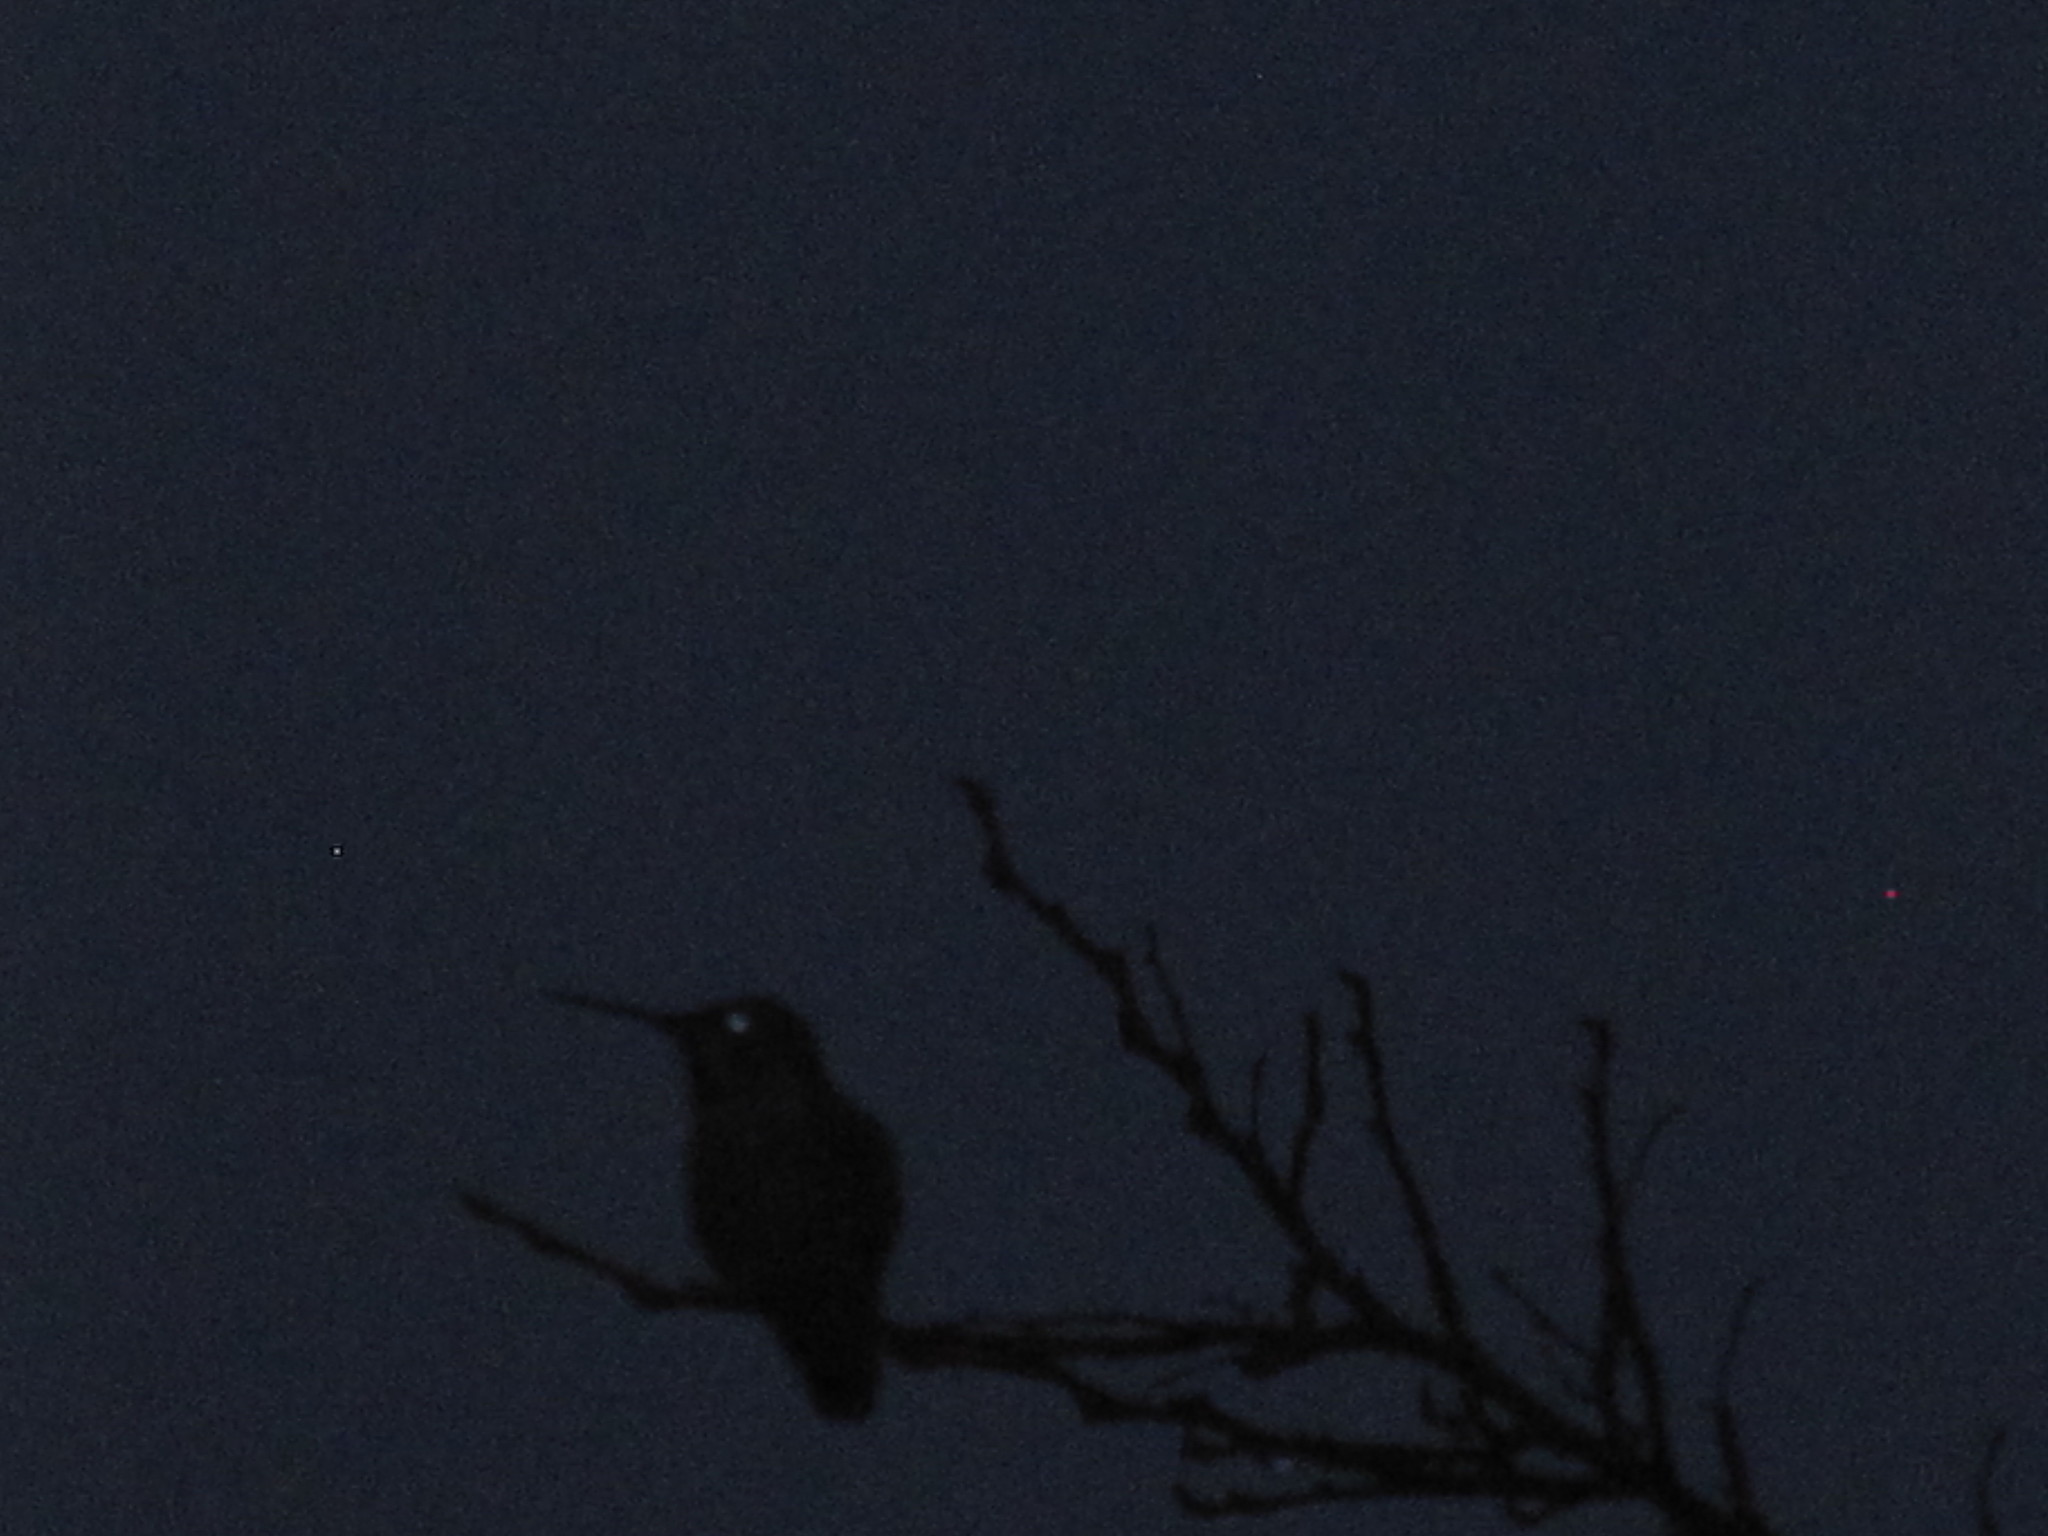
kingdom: Animalia
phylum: Chordata
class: Aves
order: Apodiformes
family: Trochilidae
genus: Calypte
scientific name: Calypte anna
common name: Anna's hummingbird
